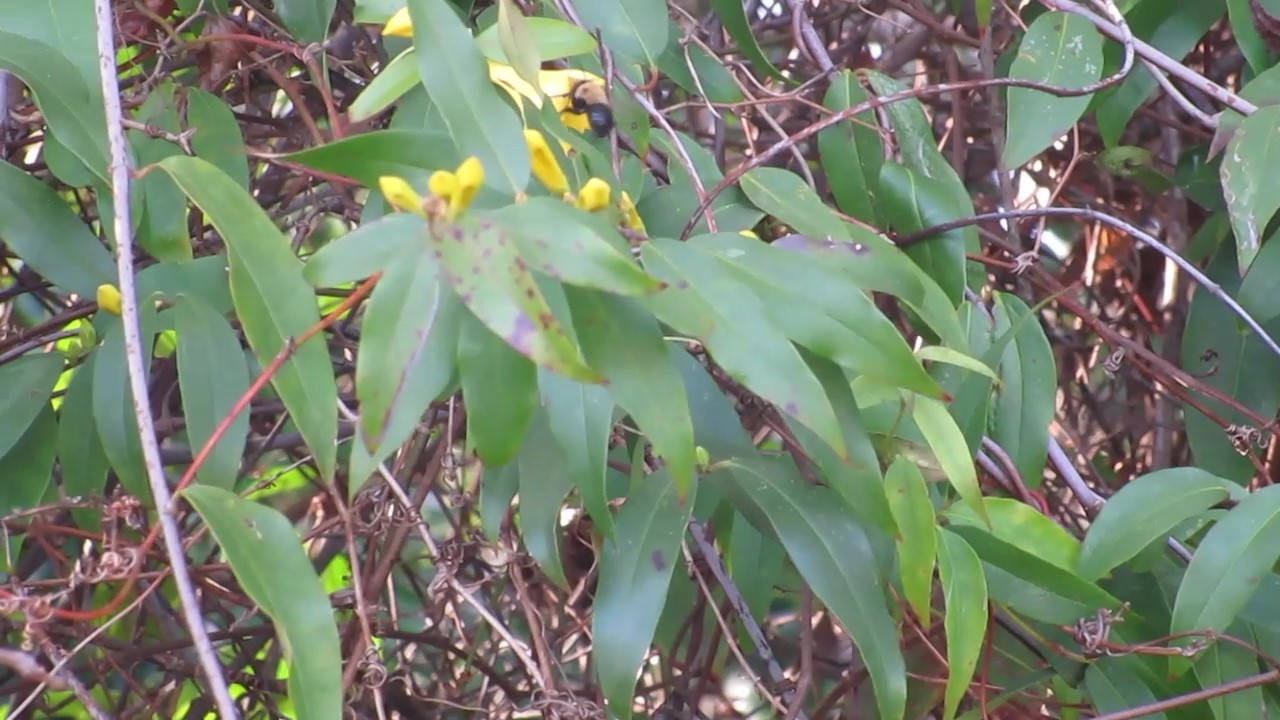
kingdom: Animalia
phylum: Arthropoda
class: Insecta
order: Hymenoptera
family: Apidae
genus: Habropoda
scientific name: Habropoda laboriosa
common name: Southeastern blueberry bee
